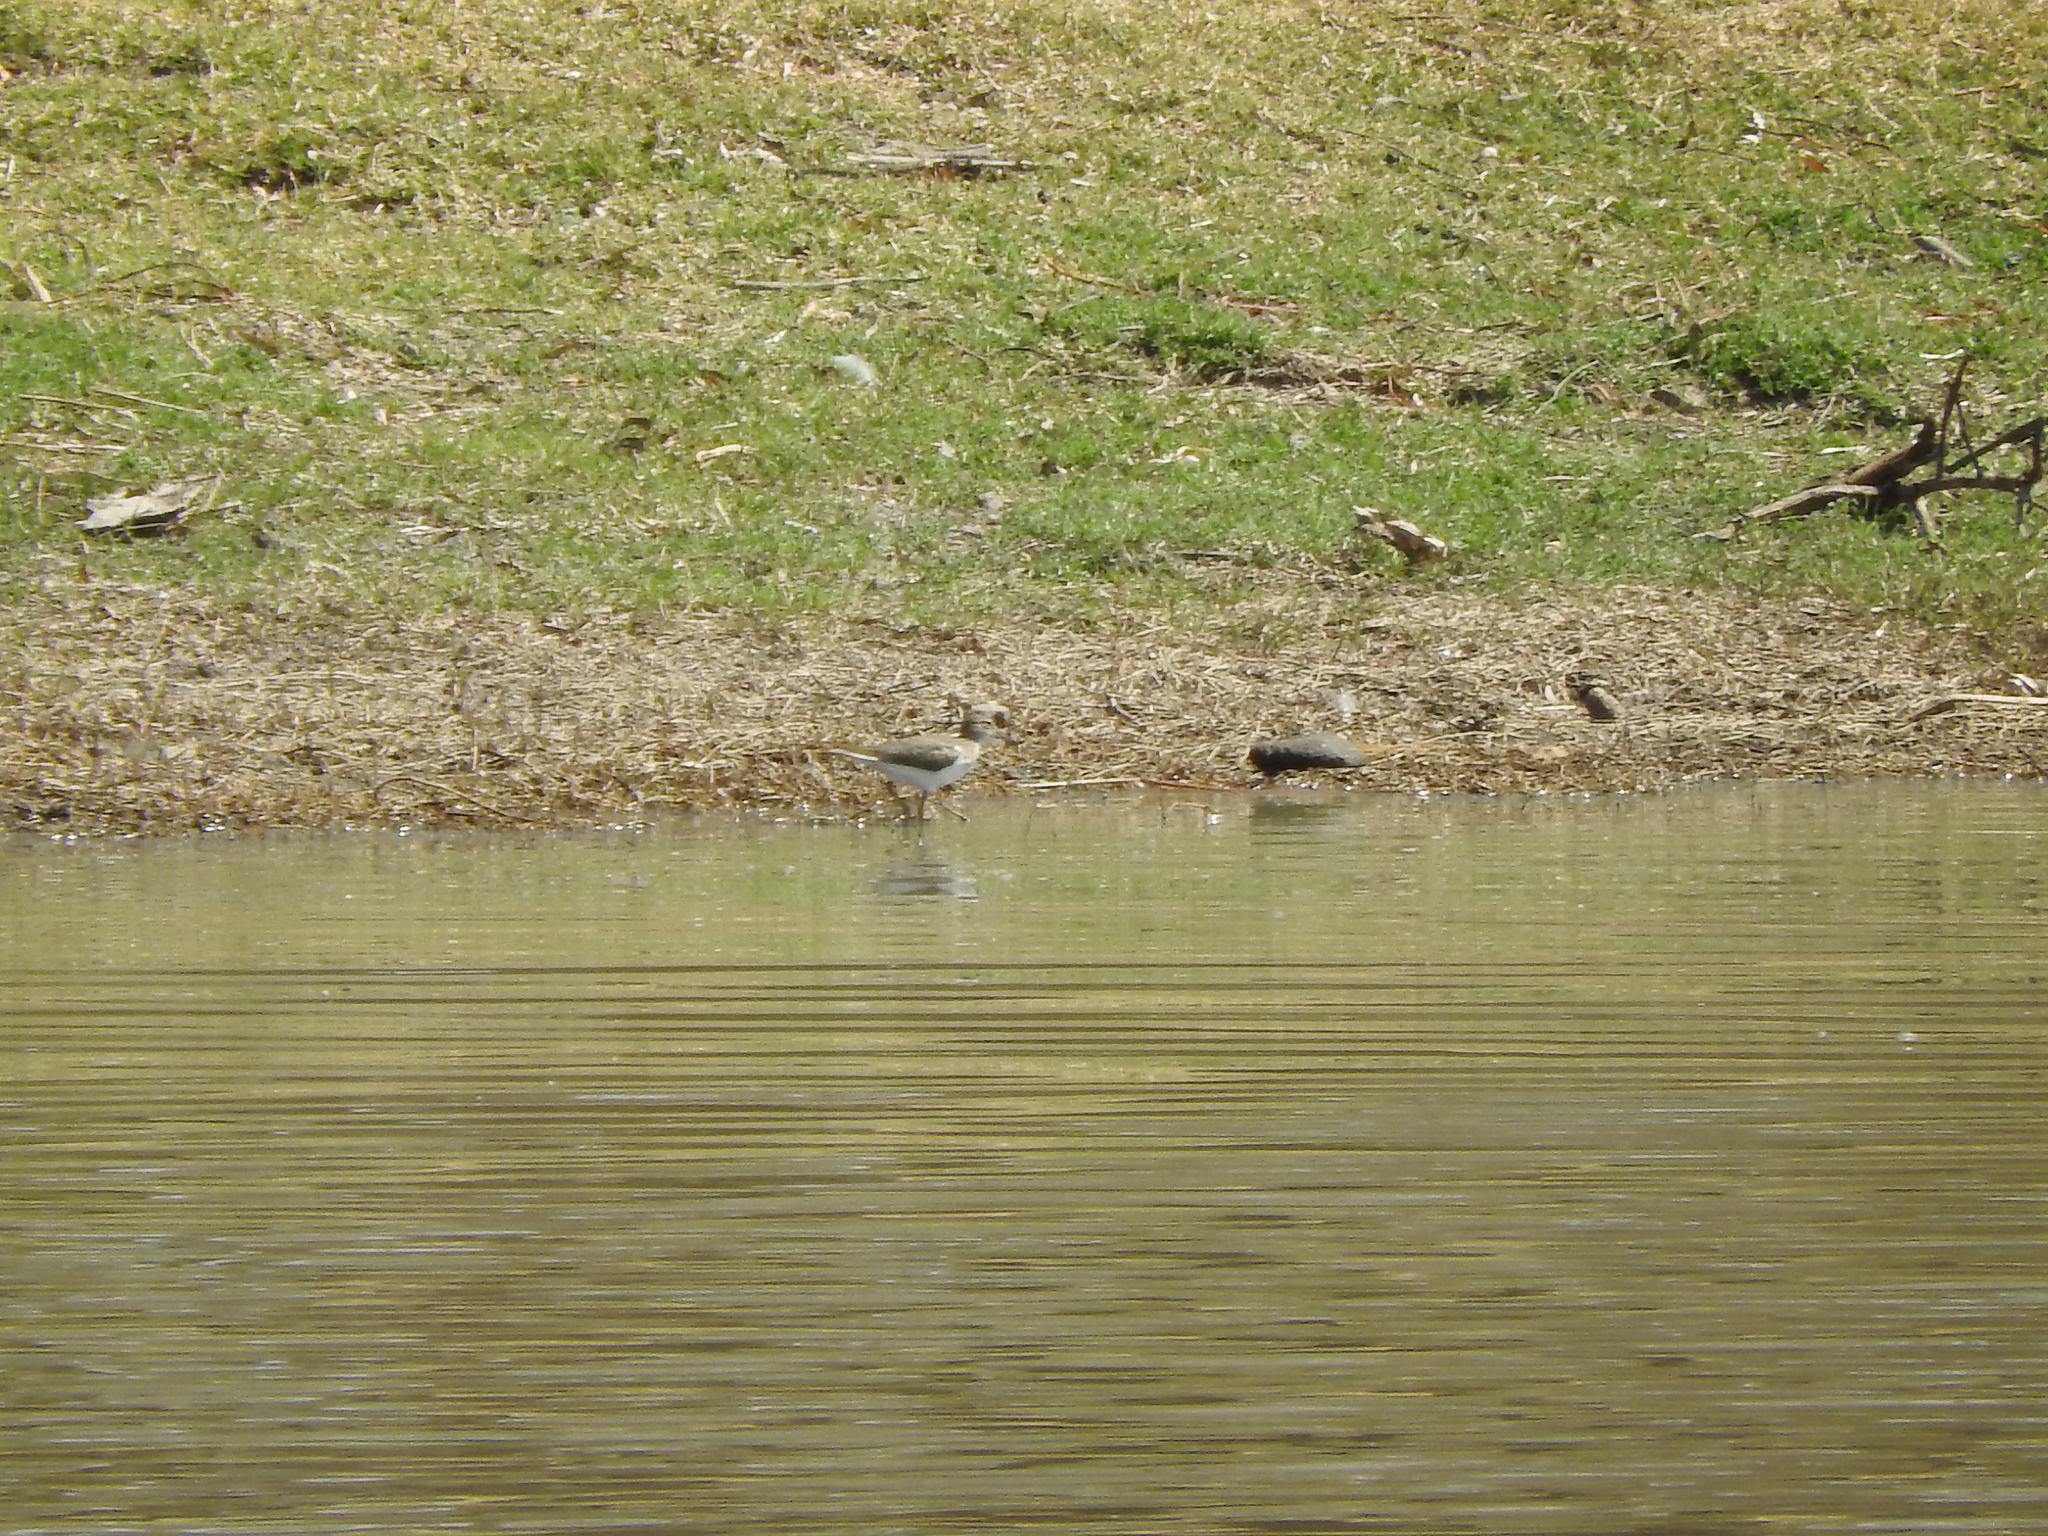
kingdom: Animalia
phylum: Chordata
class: Aves
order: Charadriiformes
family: Scolopacidae
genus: Actitis
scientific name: Actitis macularius
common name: Spotted sandpiper
